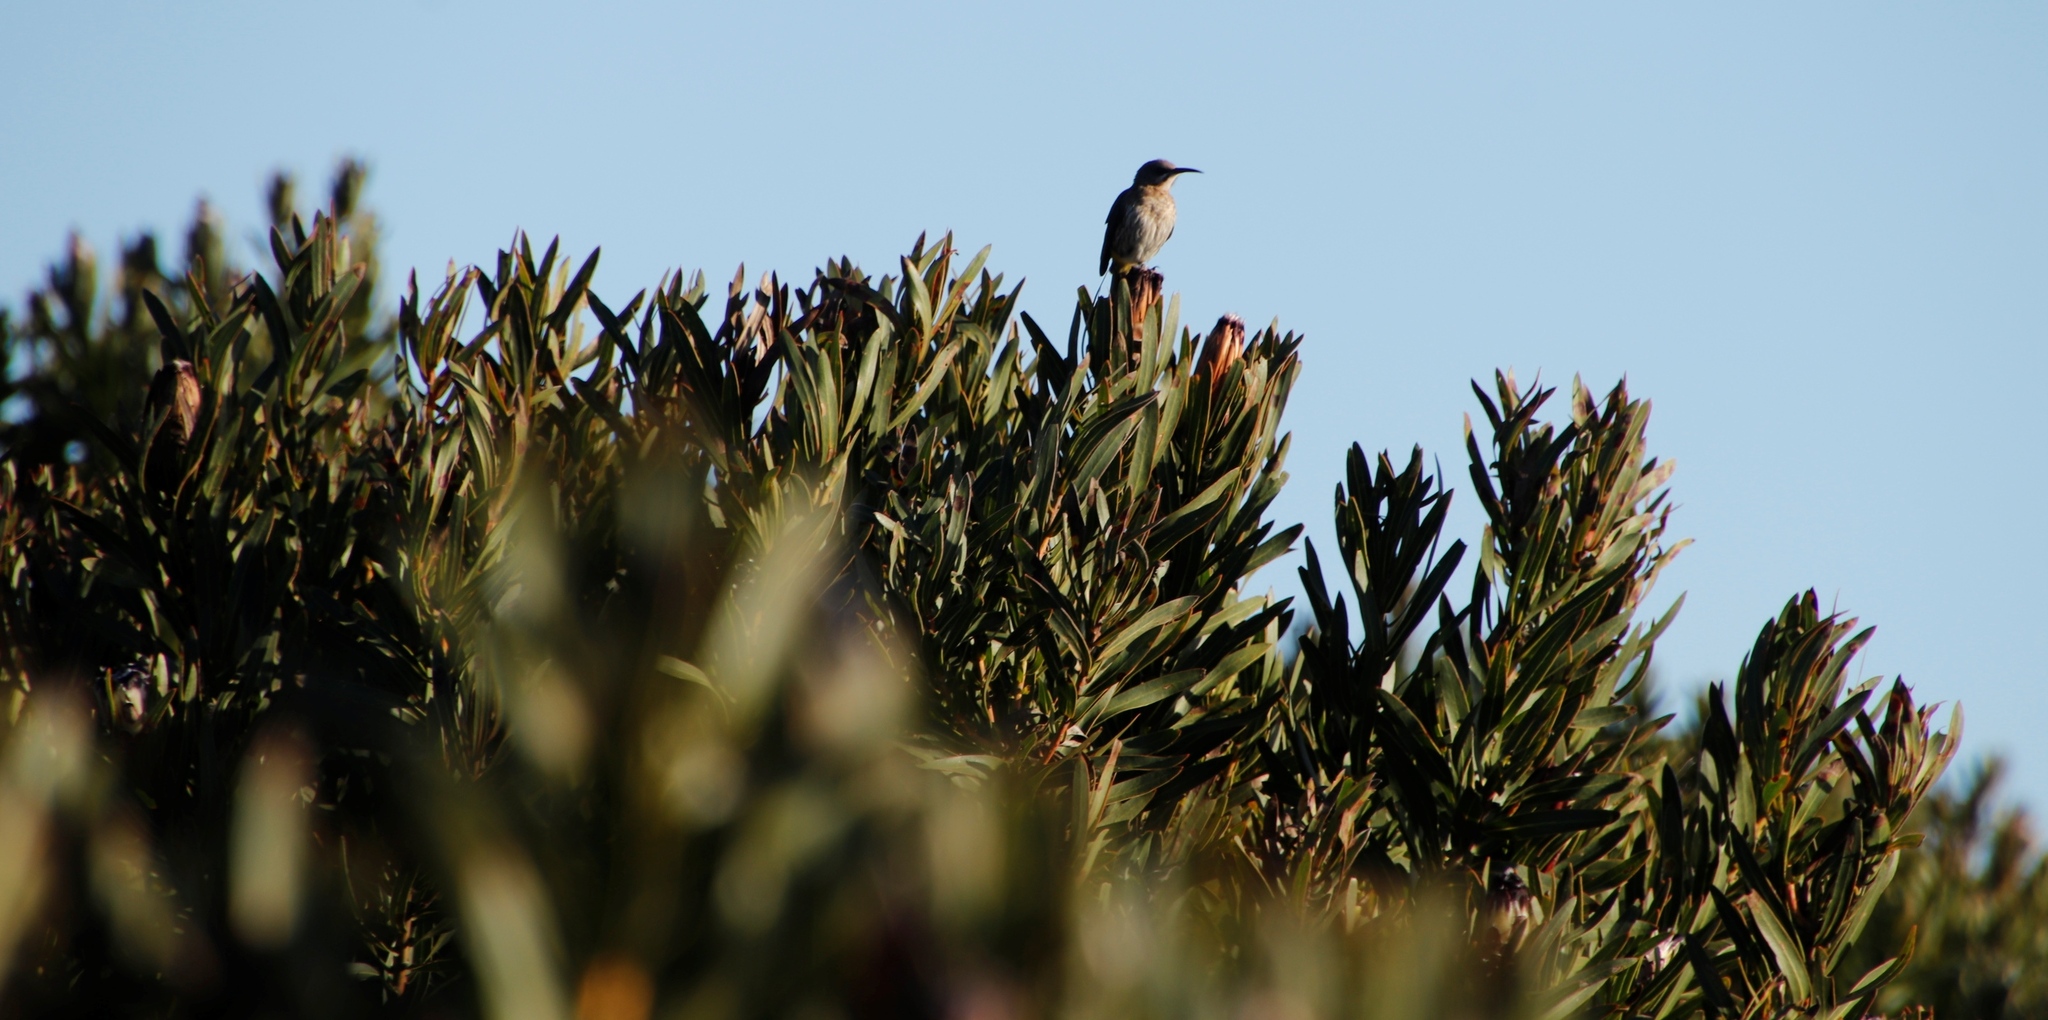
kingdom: Plantae
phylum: Tracheophyta
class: Magnoliopsida
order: Proteales
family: Proteaceae
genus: Protea
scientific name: Protea lepidocarpodendron
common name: Black-bearded protea
